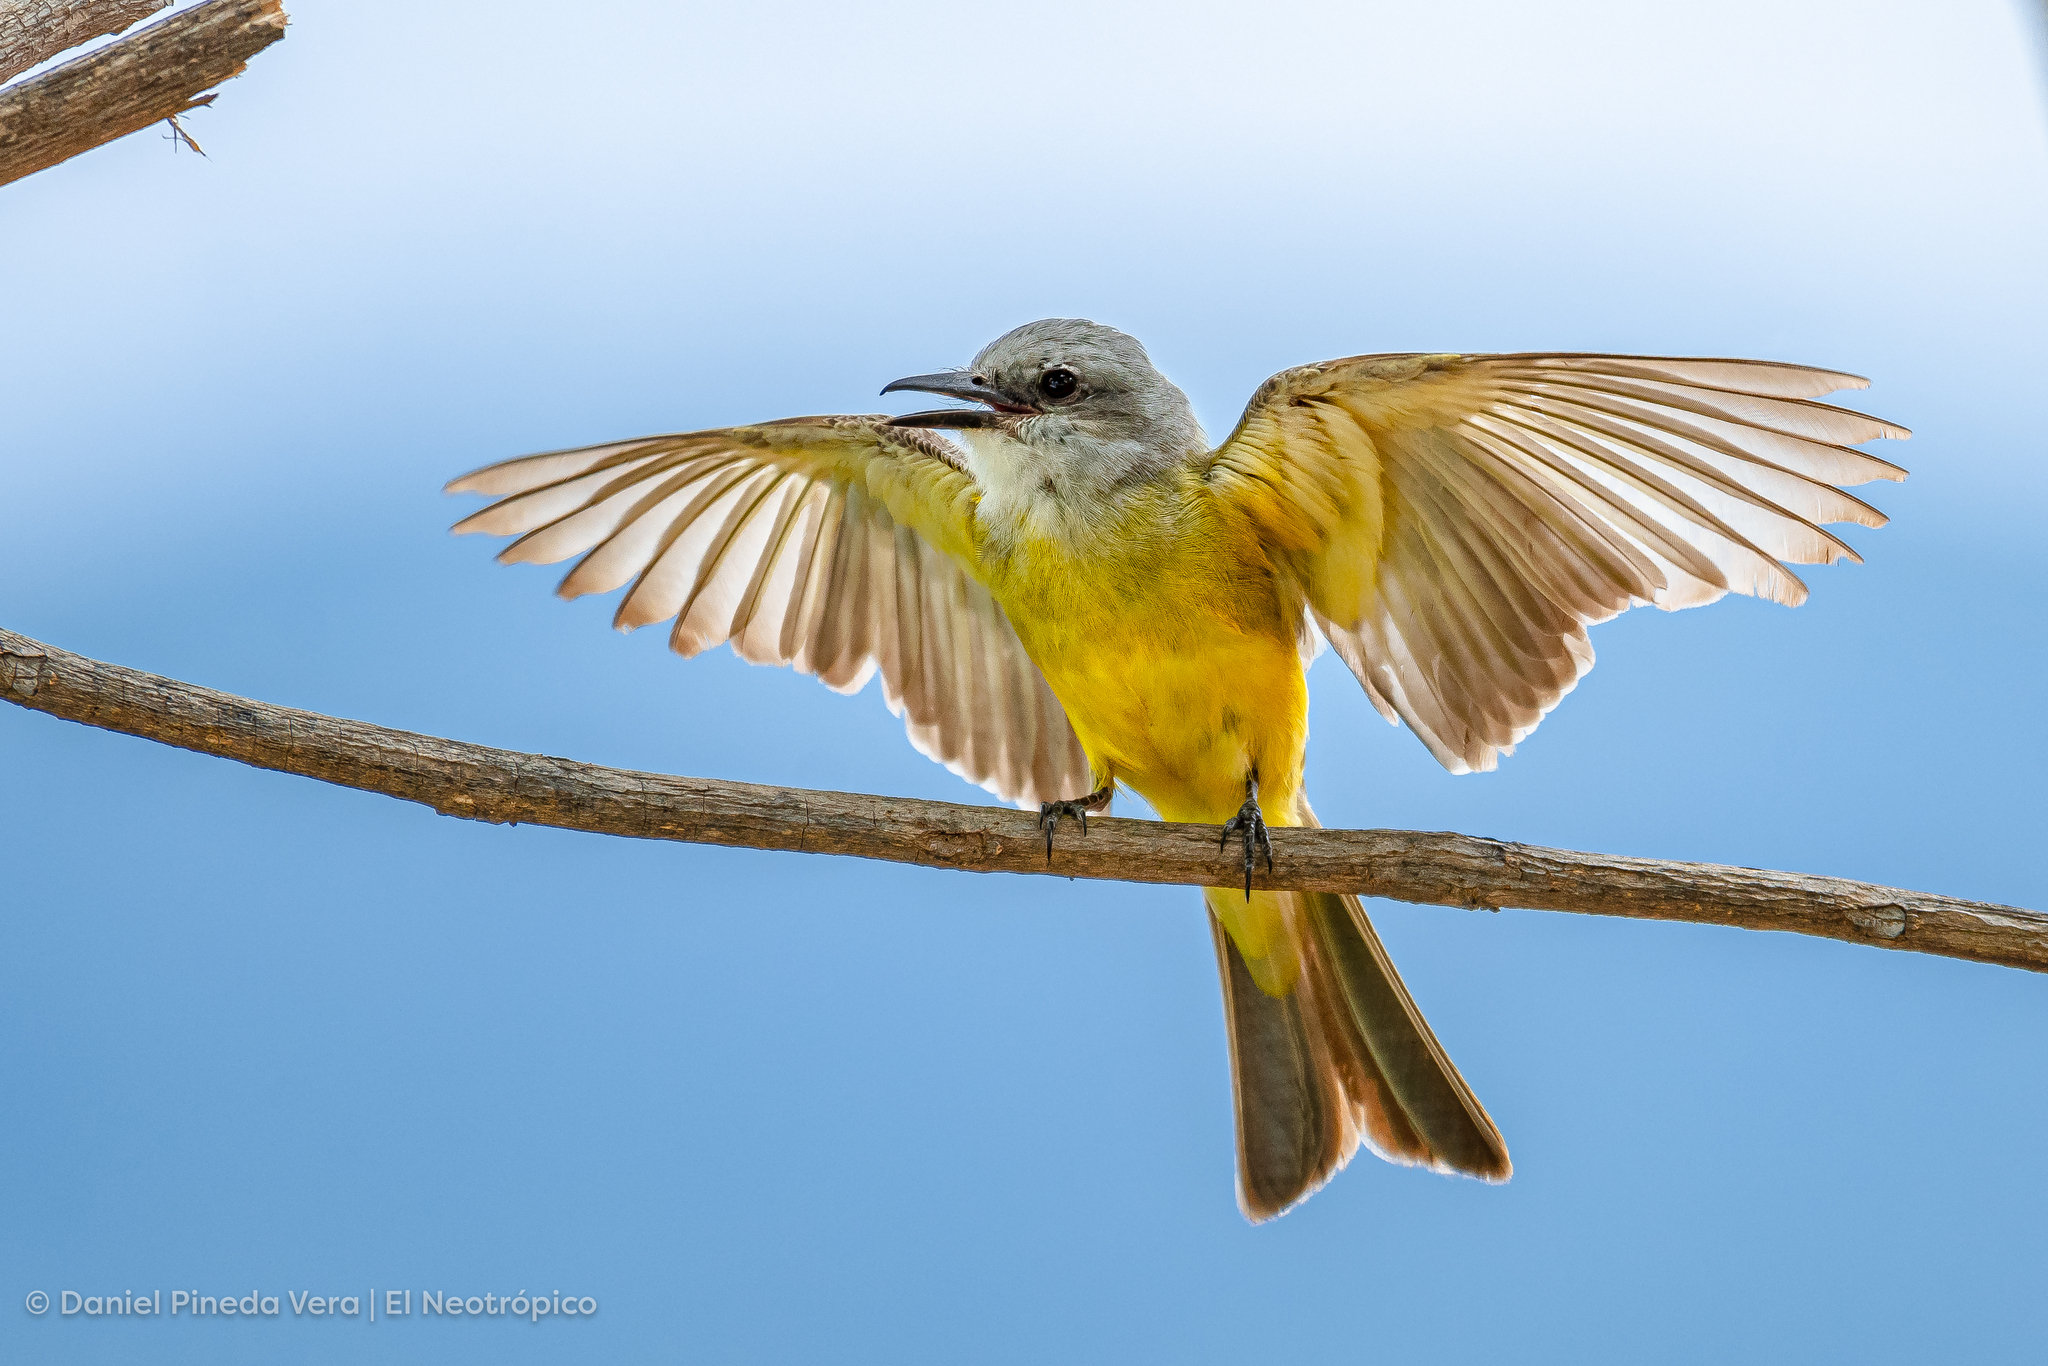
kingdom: Animalia
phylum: Chordata
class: Aves
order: Passeriformes
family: Tyrannidae
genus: Tyrannus
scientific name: Tyrannus melancholicus
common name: Tropical kingbird
